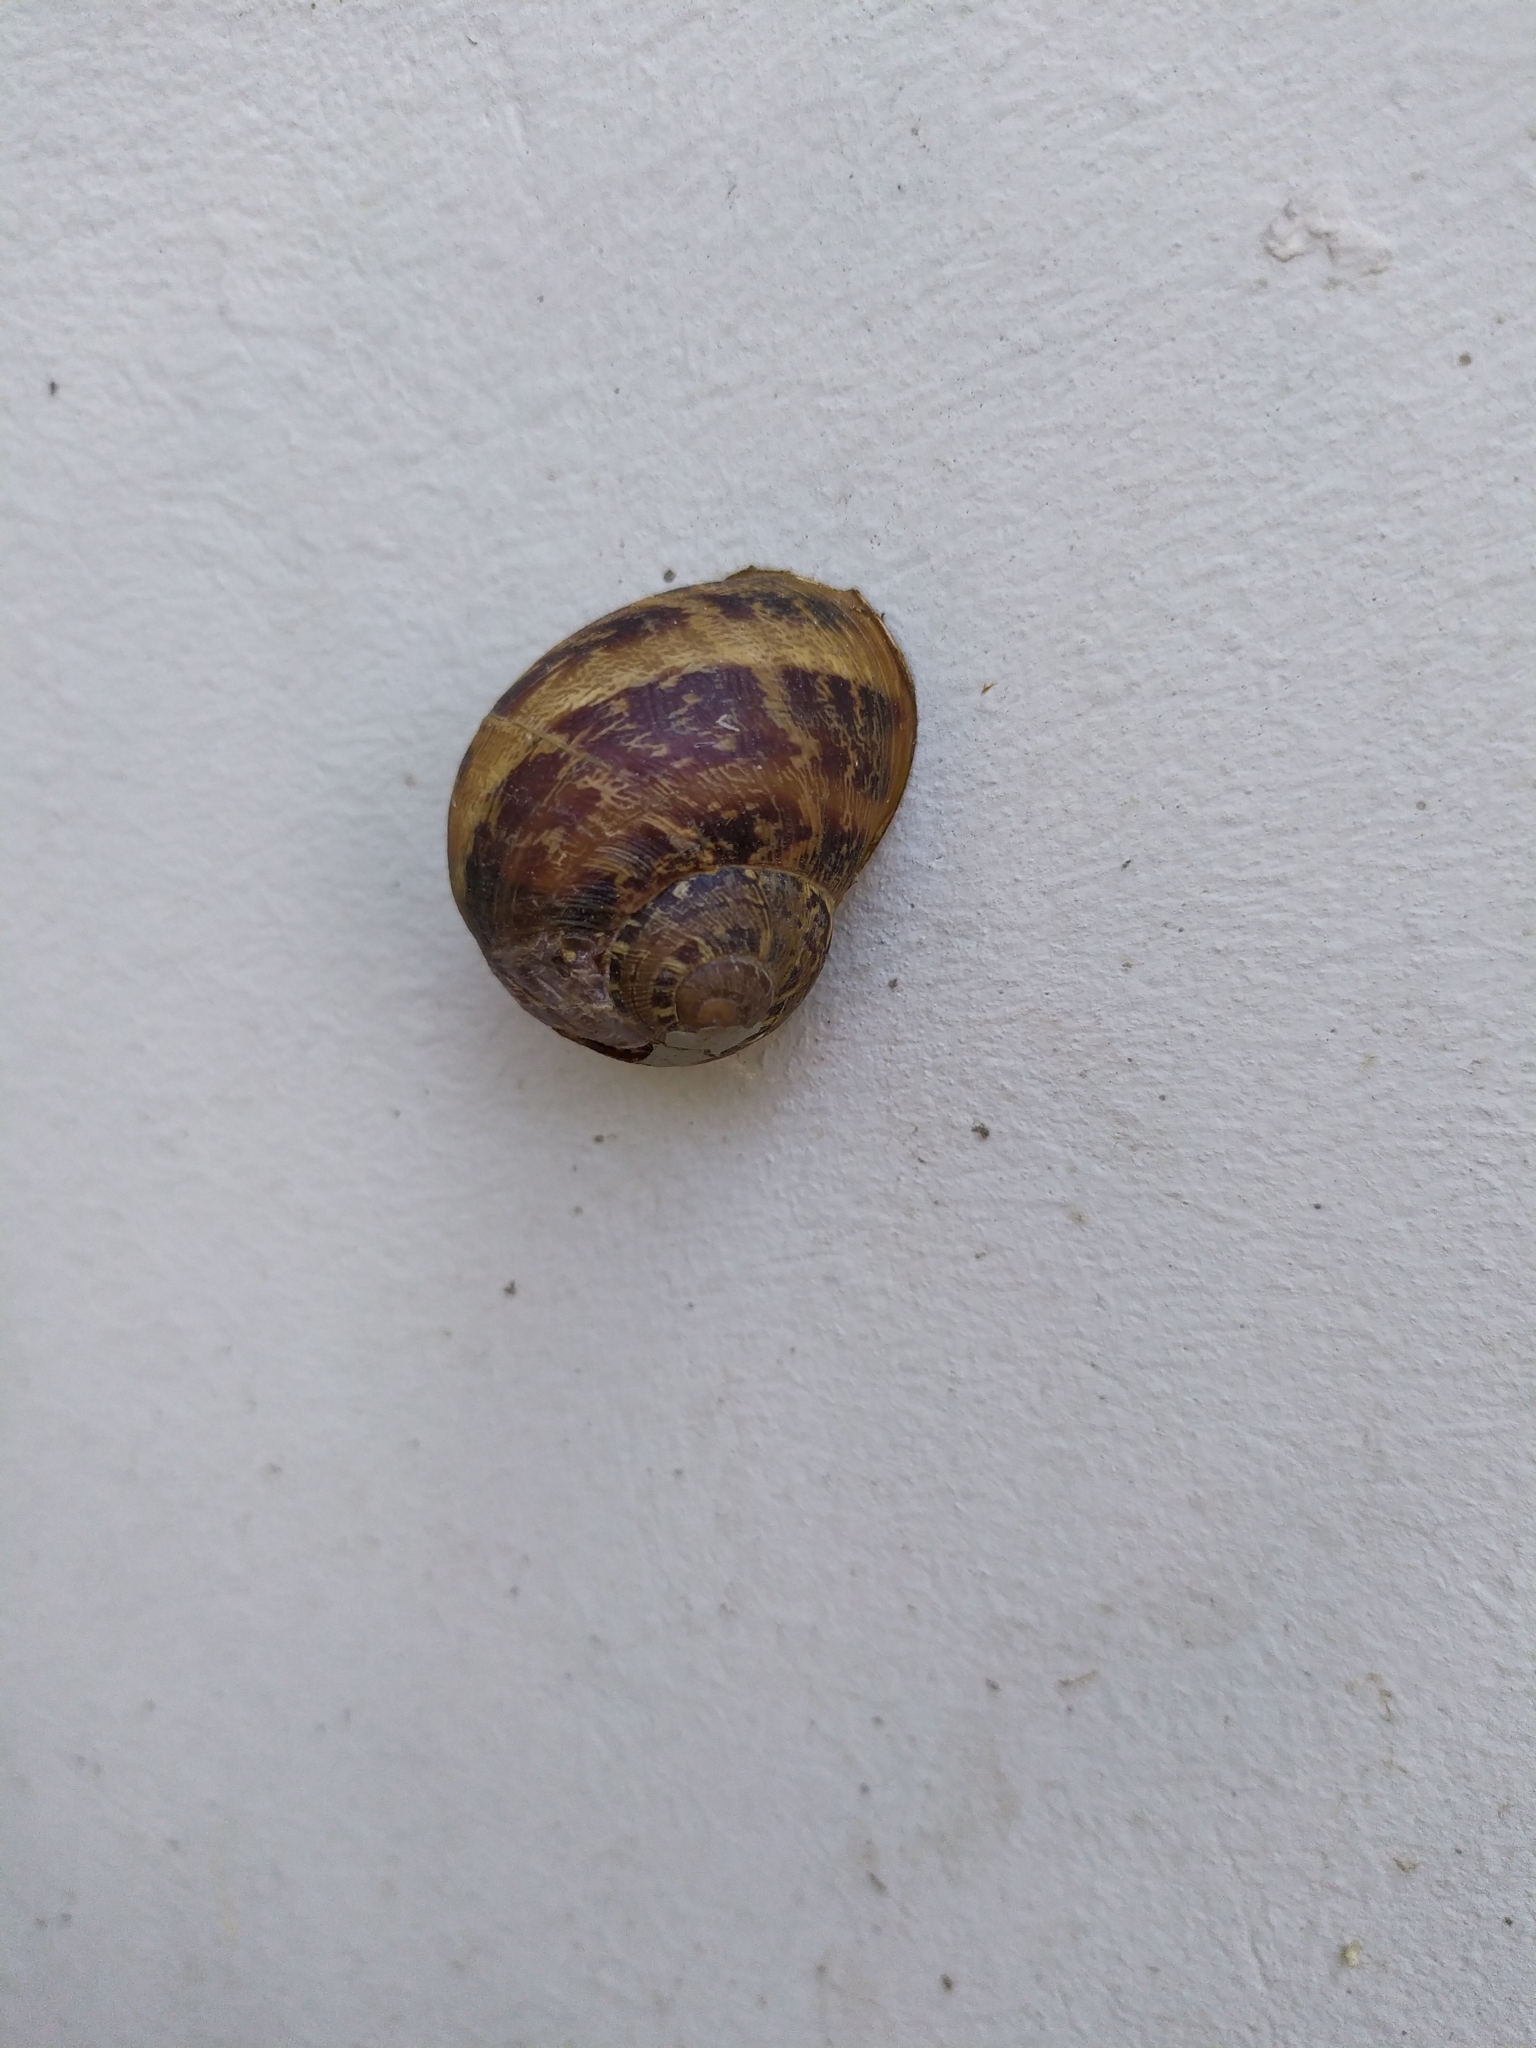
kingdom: Animalia
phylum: Mollusca
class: Gastropoda
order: Stylommatophora
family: Helicidae
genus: Cornu
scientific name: Cornu aspersum
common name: Brown garden snail
